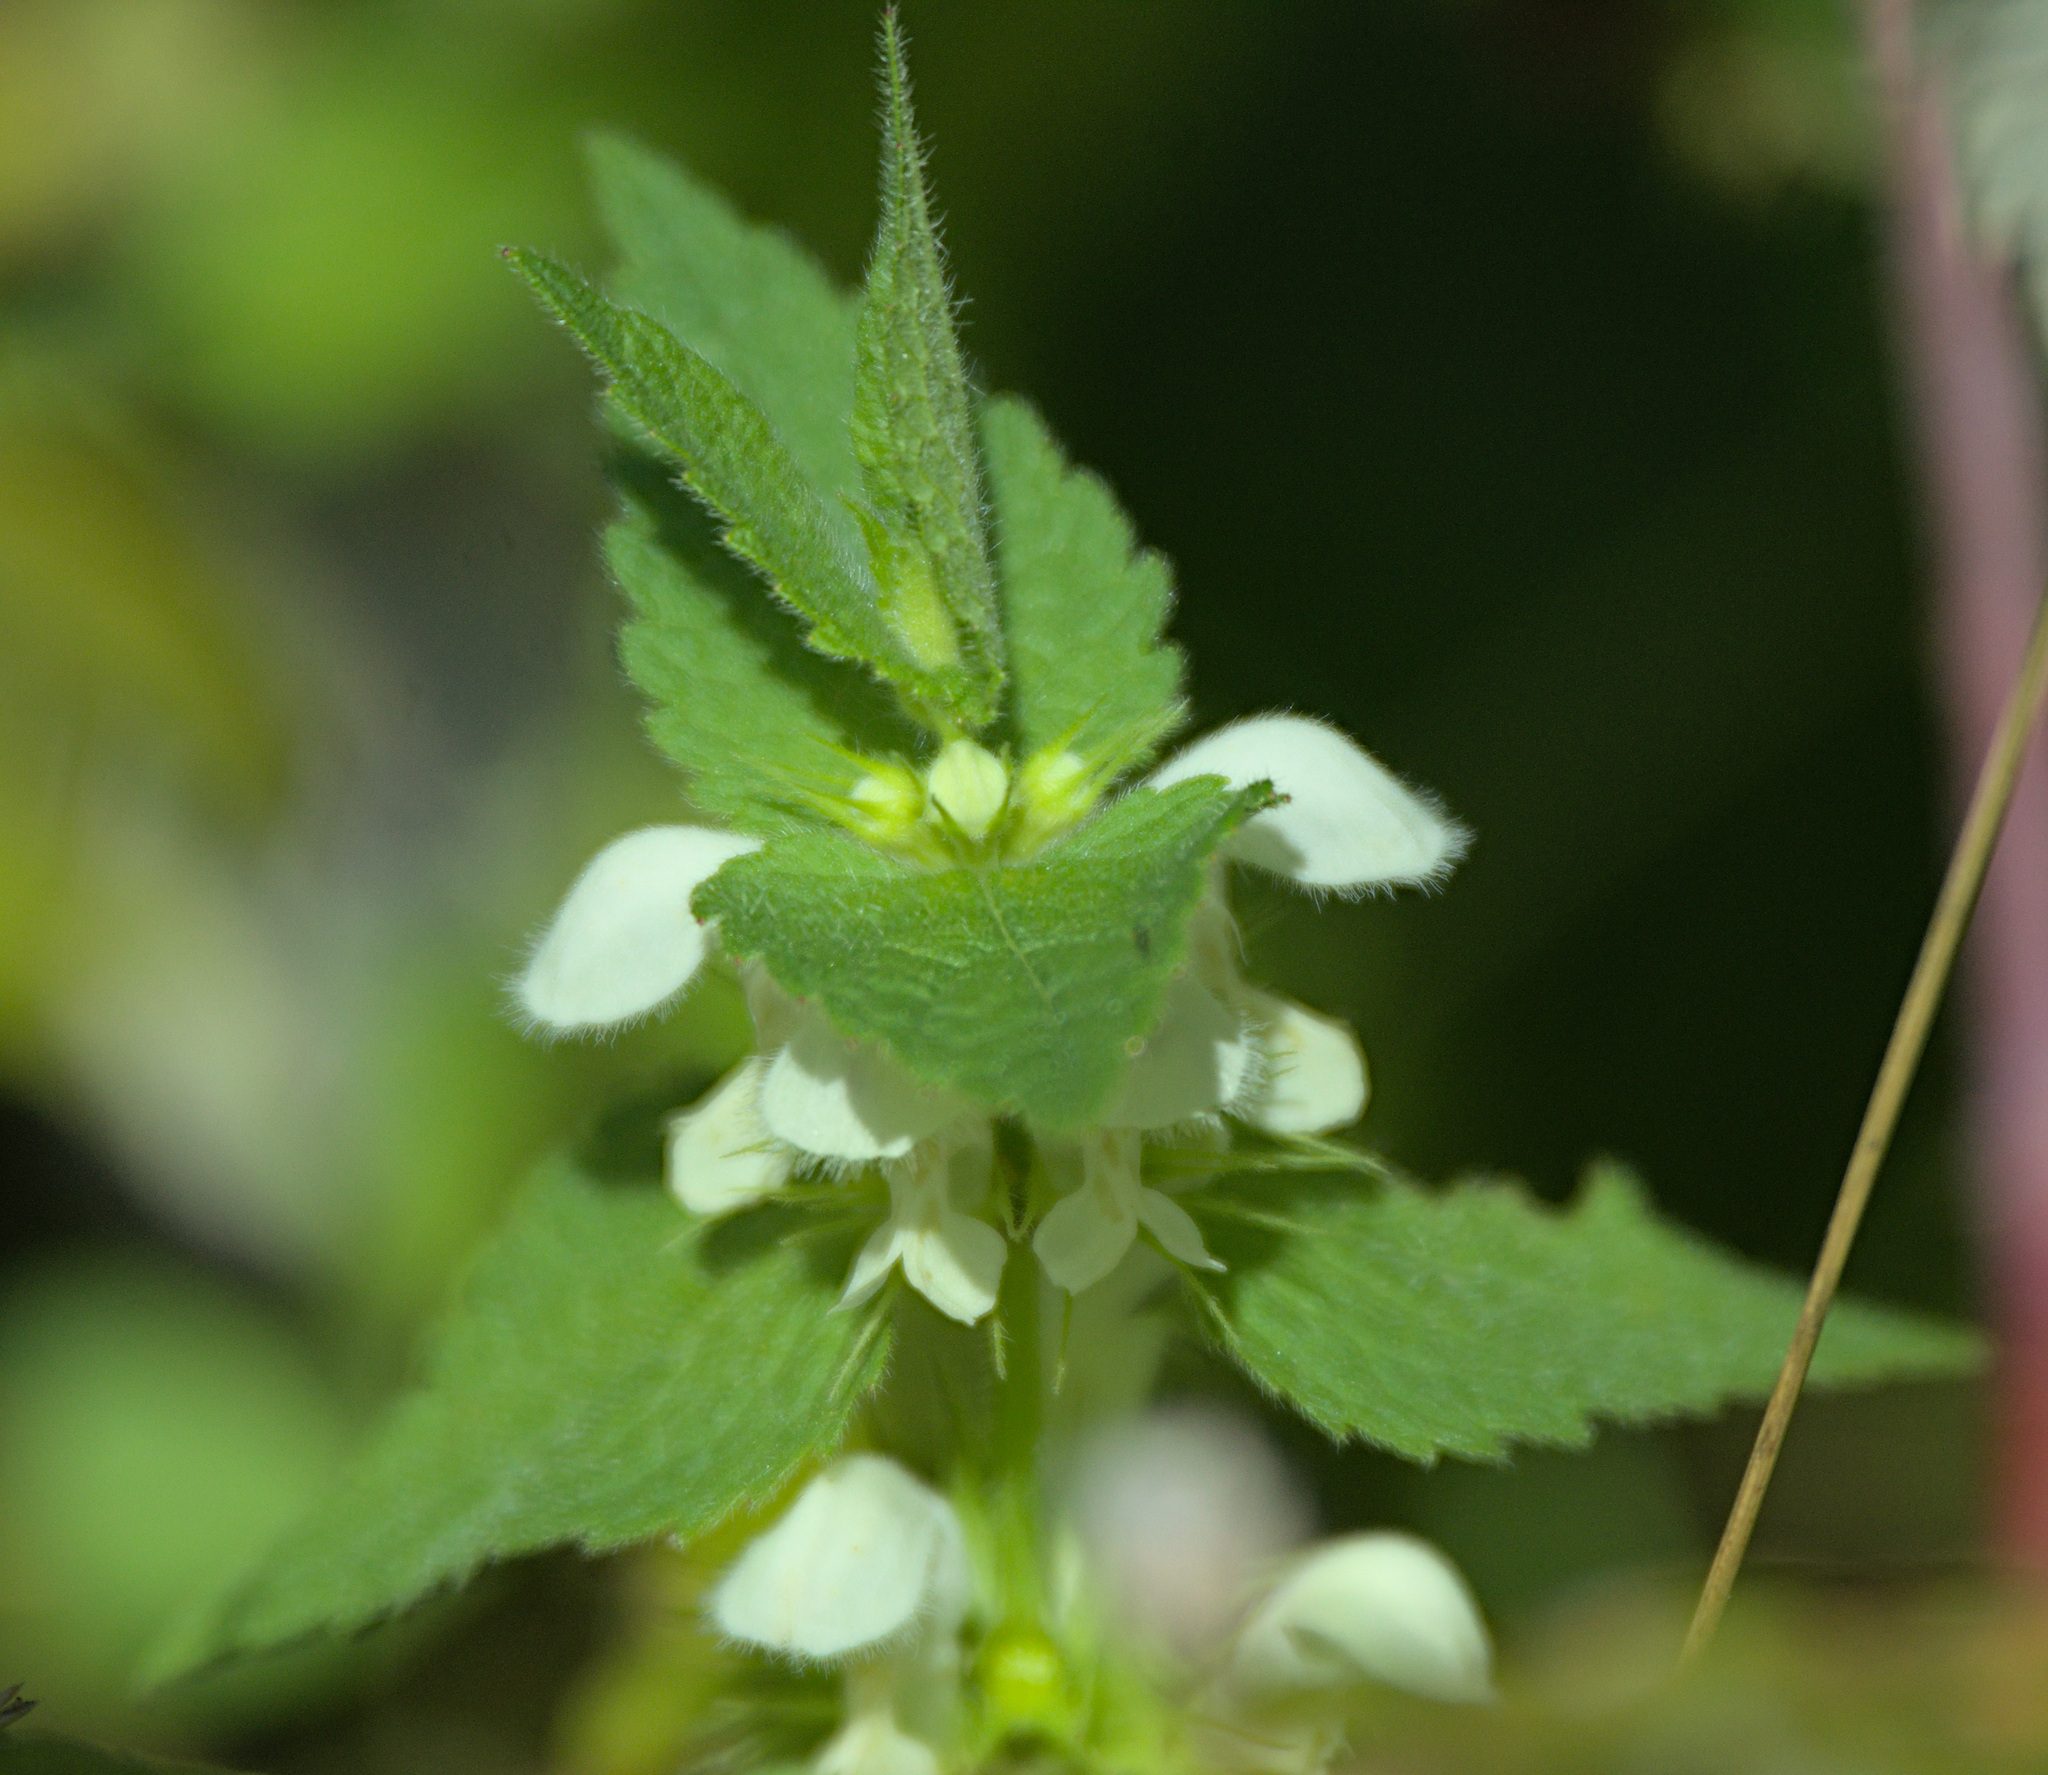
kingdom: Plantae
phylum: Tracheophyta
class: Magnoliopsida
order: Lamiales
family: Lamiaceae
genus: Lamium
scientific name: Lamium album
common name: White dead-nettle
